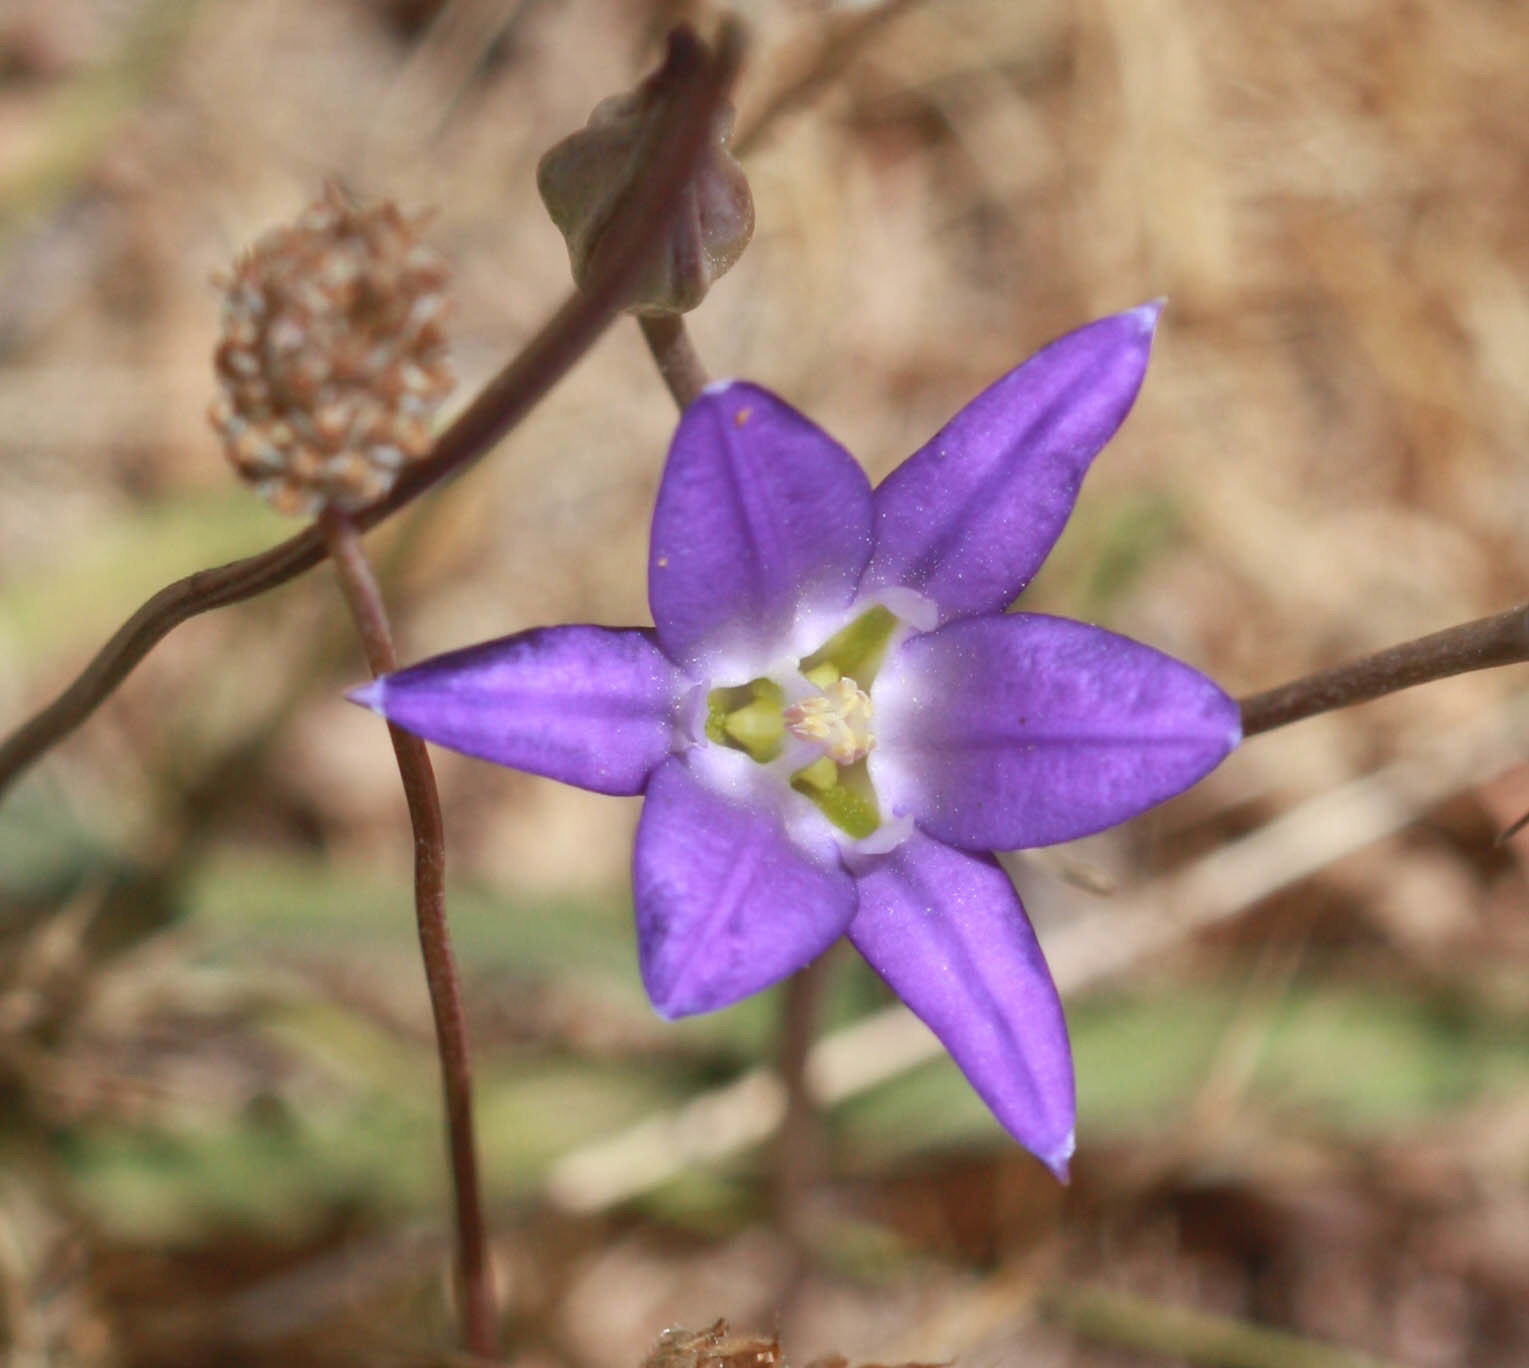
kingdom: Plantae
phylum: Tracheophyta
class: Liliopsida
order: Asparagales
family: Asparagaceae
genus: Brodiaea
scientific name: Brodiaea elegans
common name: Elegant cluster-lily
